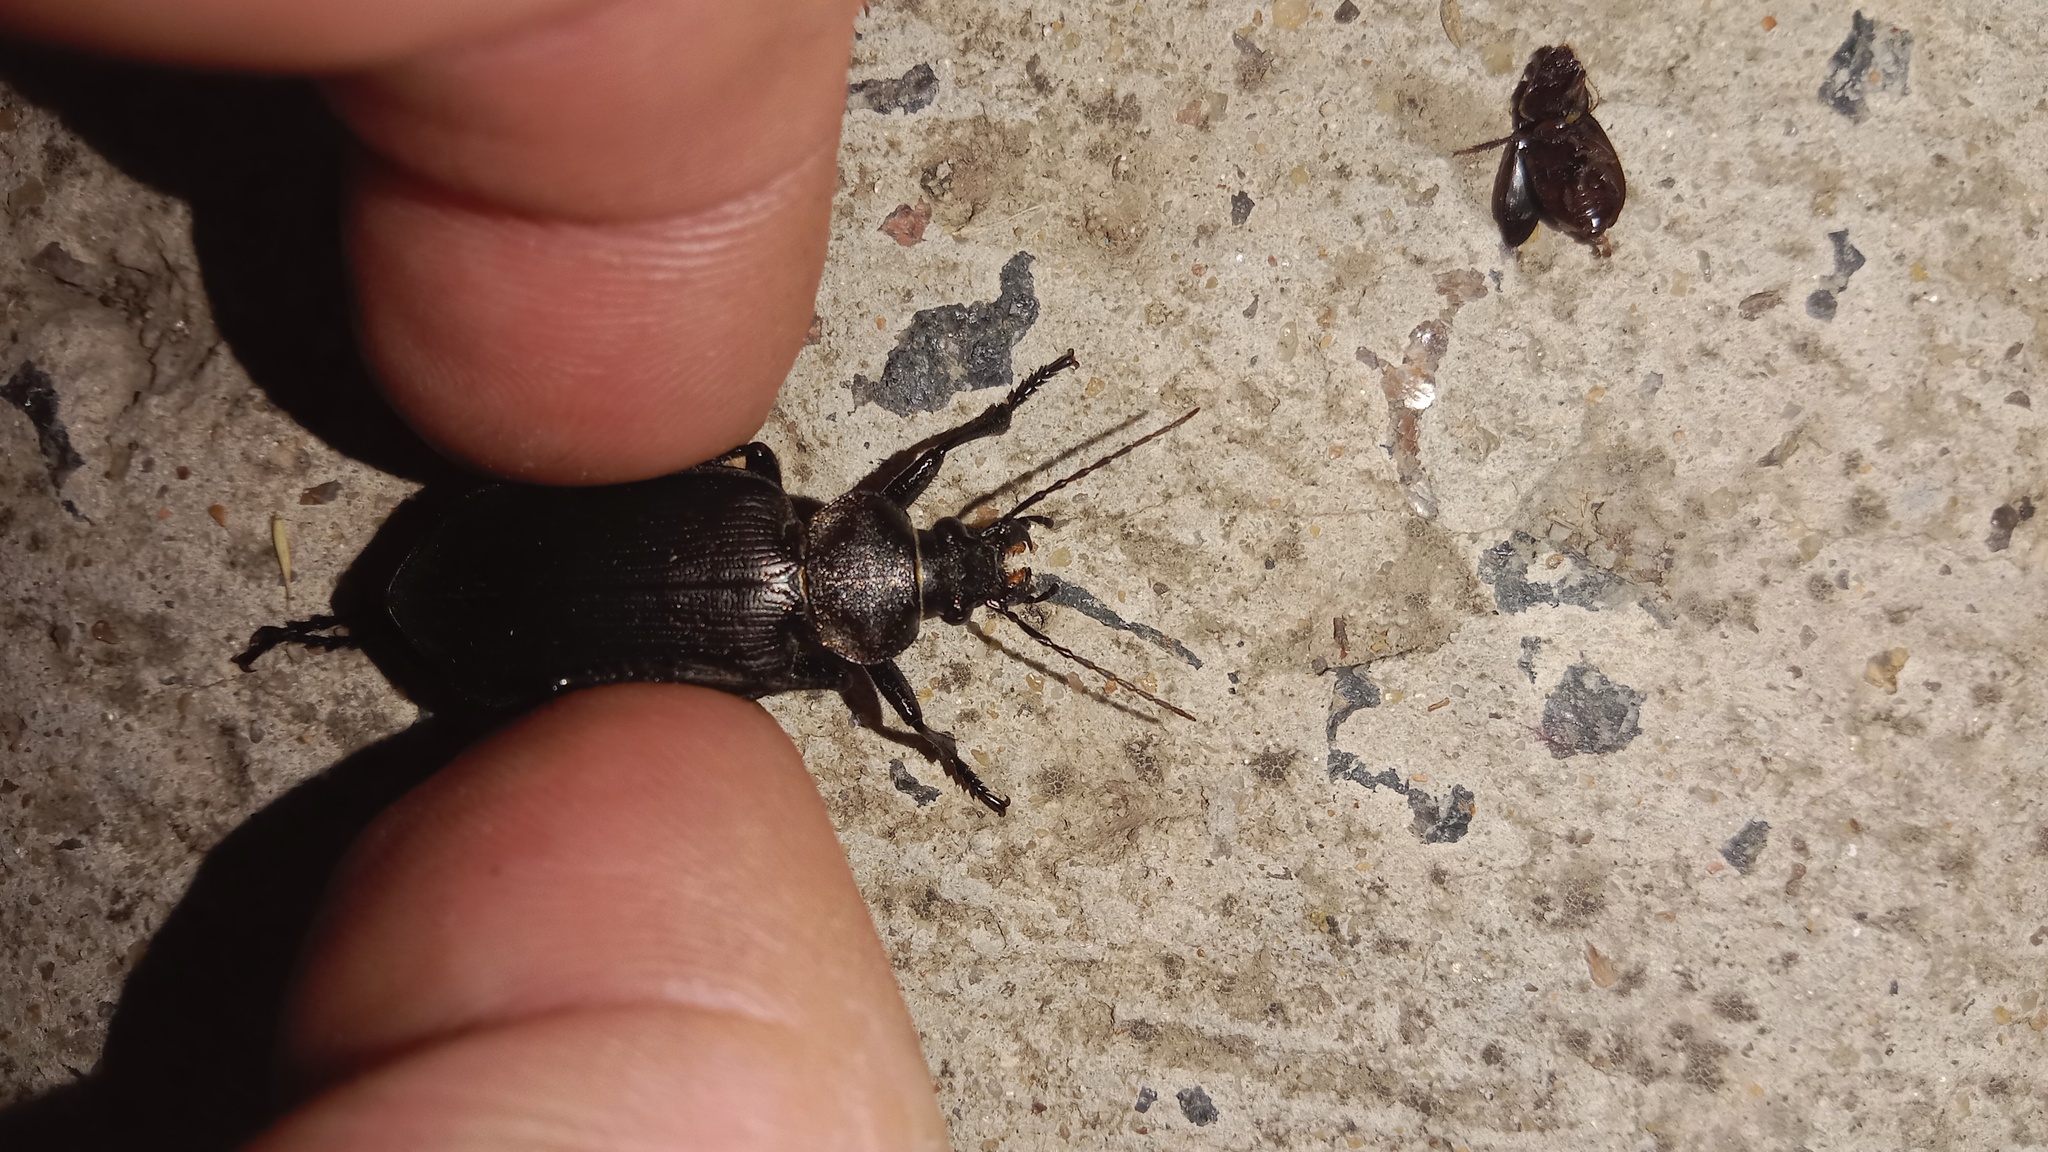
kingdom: Animalia
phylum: Arthropoda
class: Insecta
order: Coleoptera
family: Carabidae
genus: Calosoma
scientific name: Calosoma maderae
